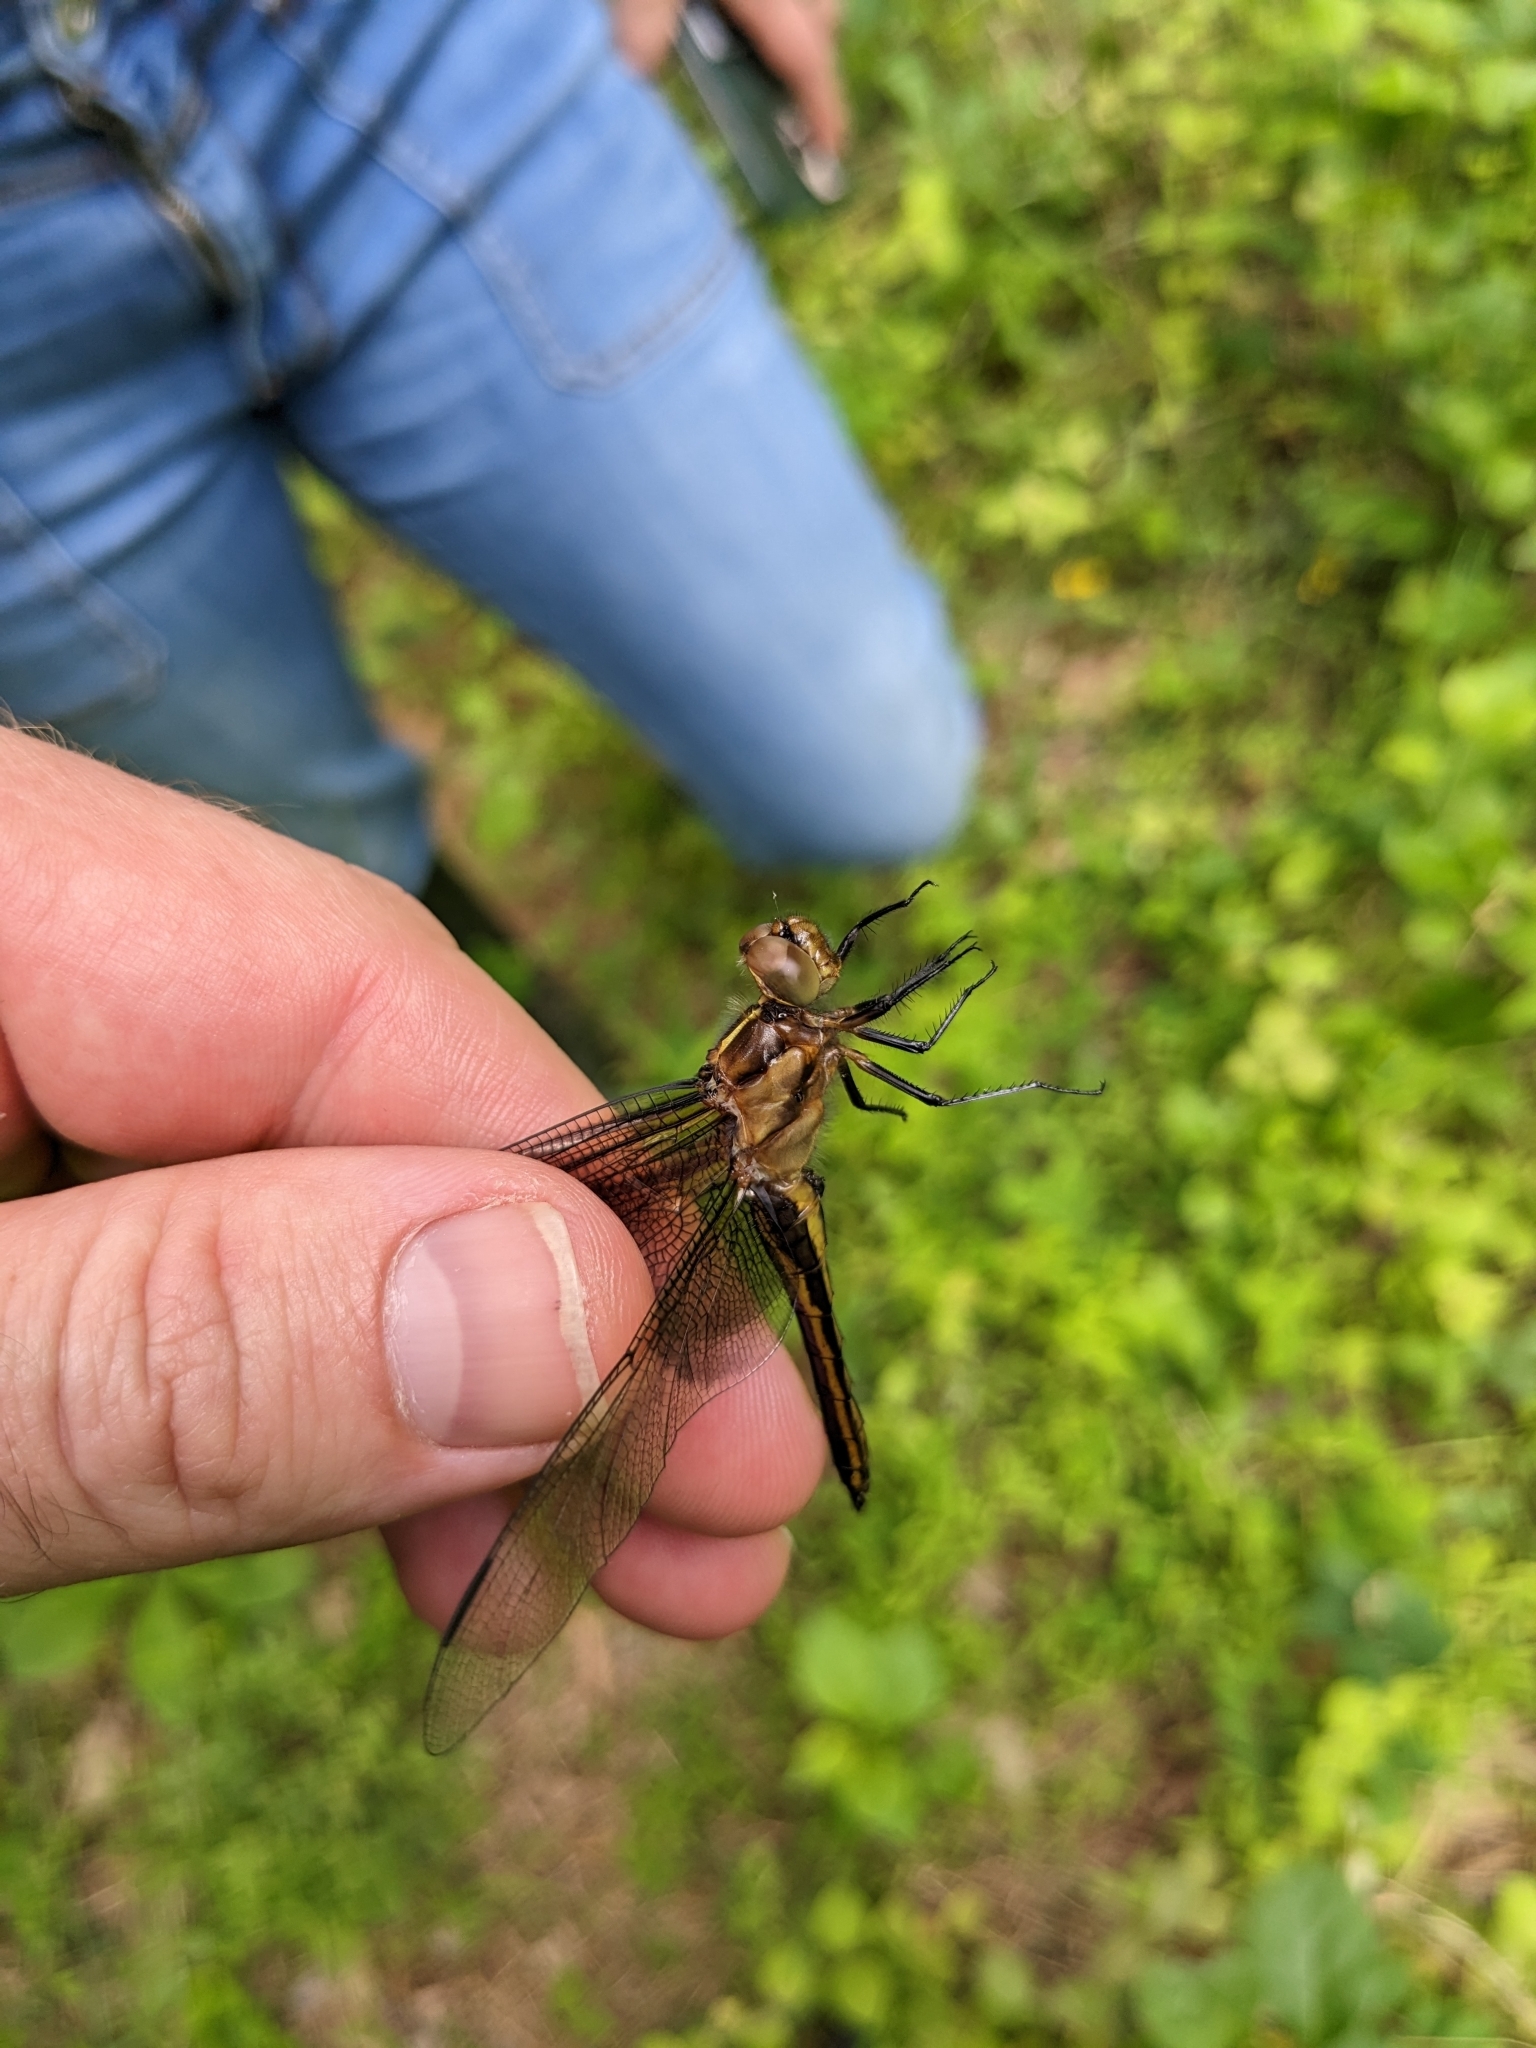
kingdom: Animalia
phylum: Arthropoda
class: Insecta
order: Odonata
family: Libellulidae
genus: Libellula
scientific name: Libellula luctuosa
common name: Widow skimmer
